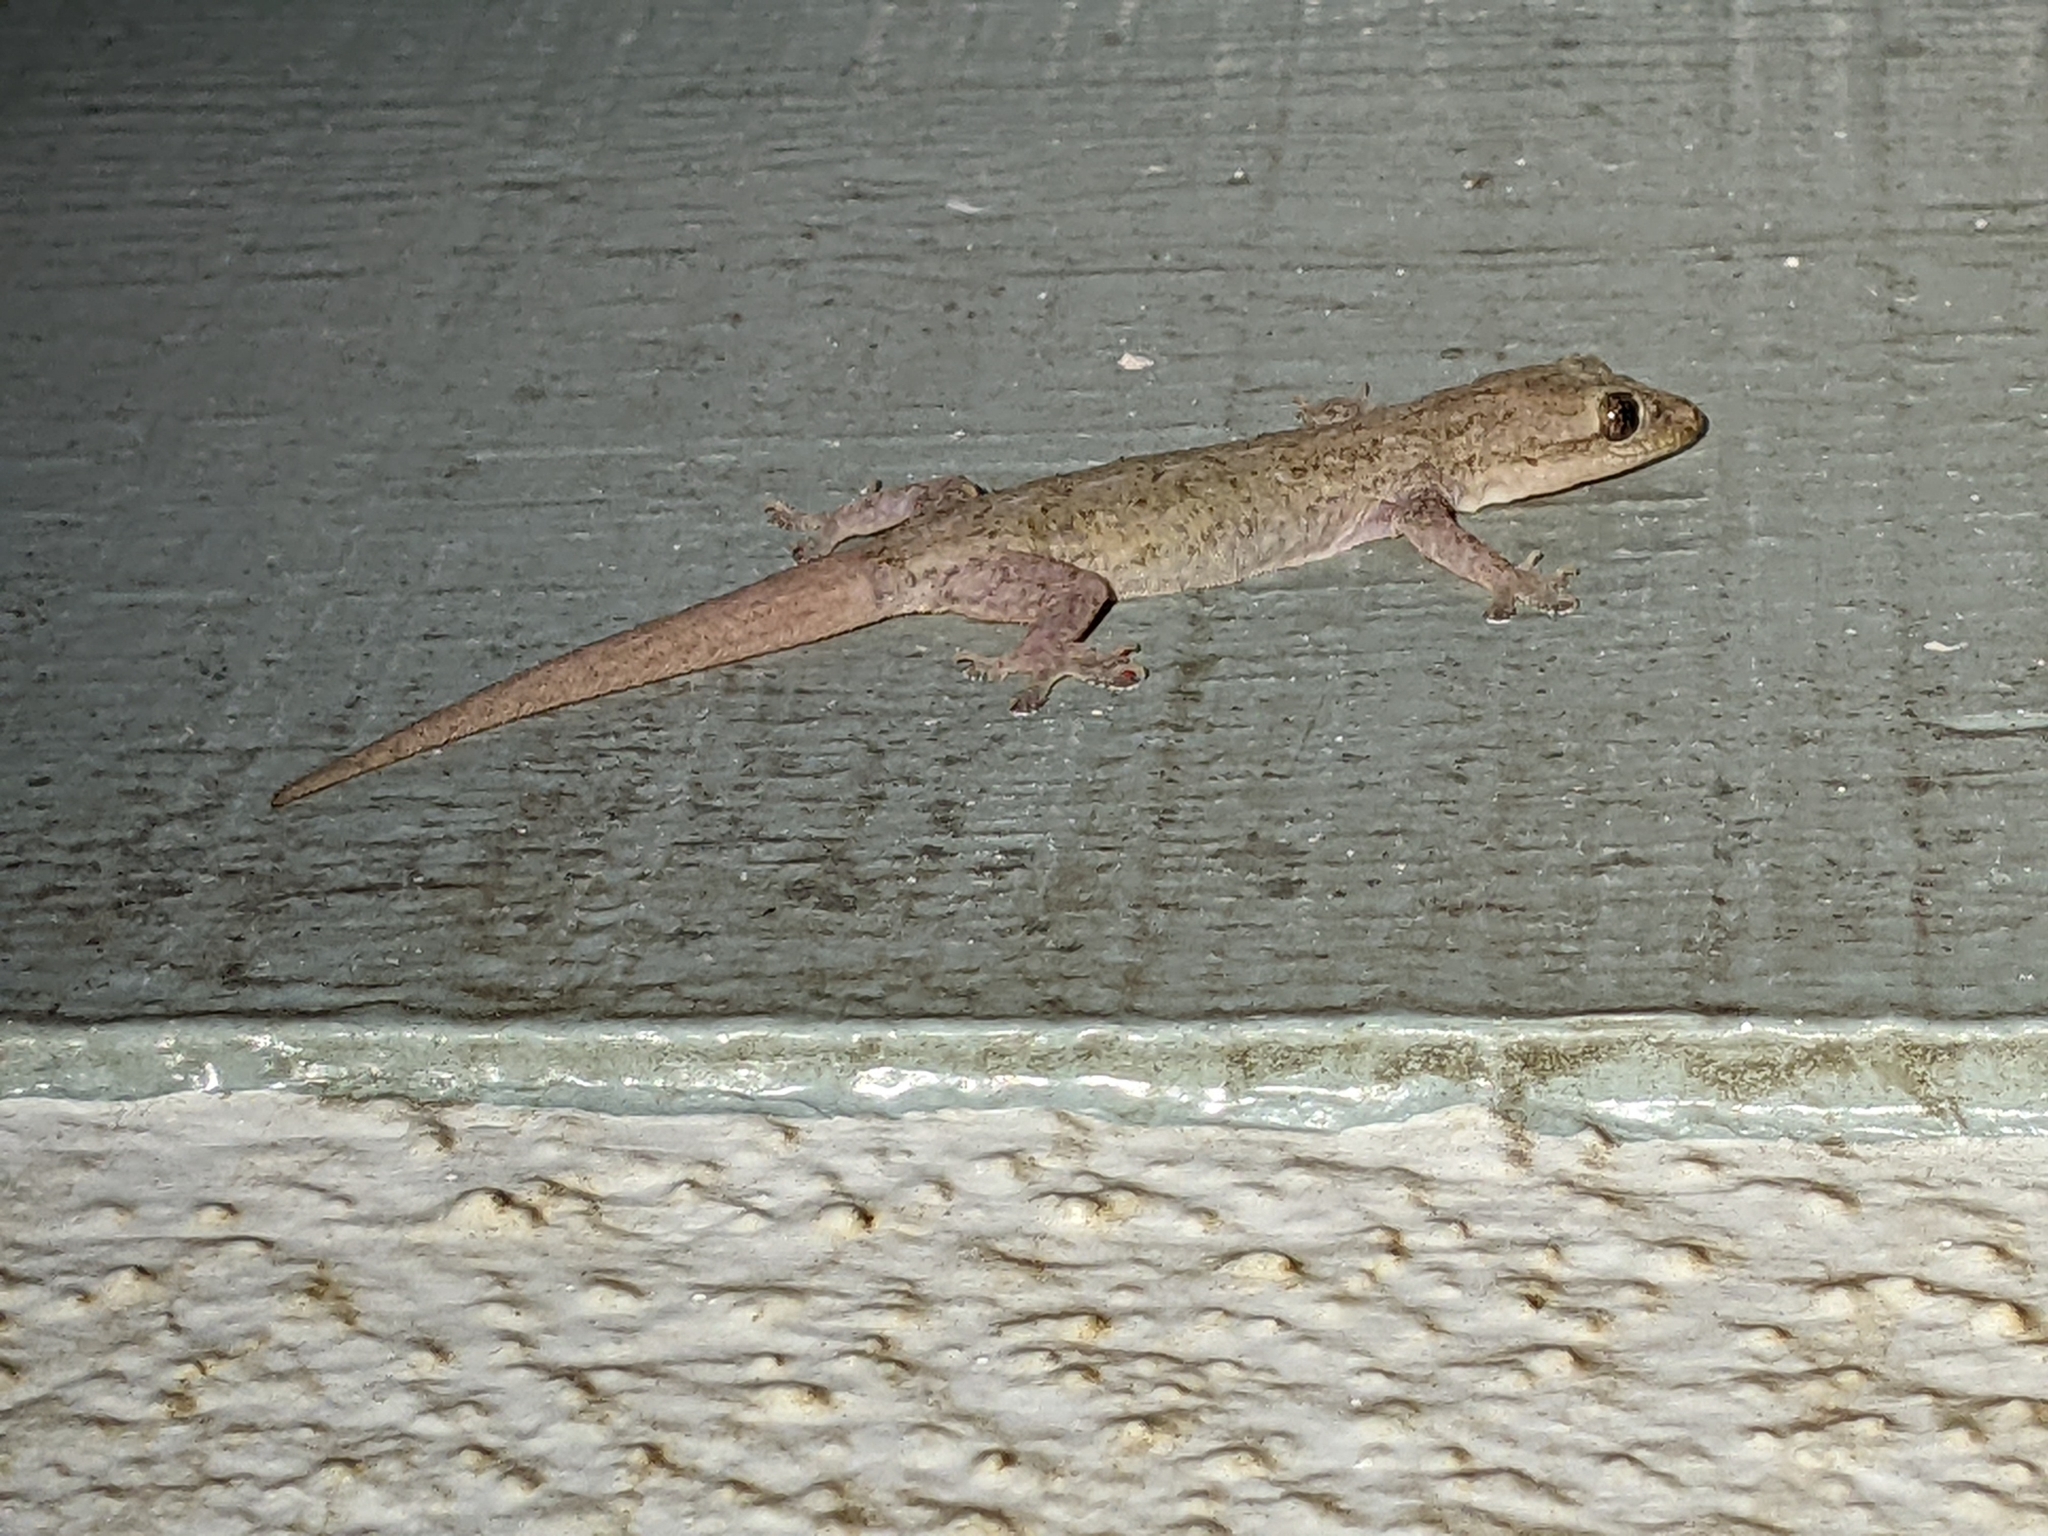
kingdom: Animalia
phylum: Chordata
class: Squamata
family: Gekkonidae
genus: Hemidactylus
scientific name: Hemidactylus frenatus
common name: Common house gecko
